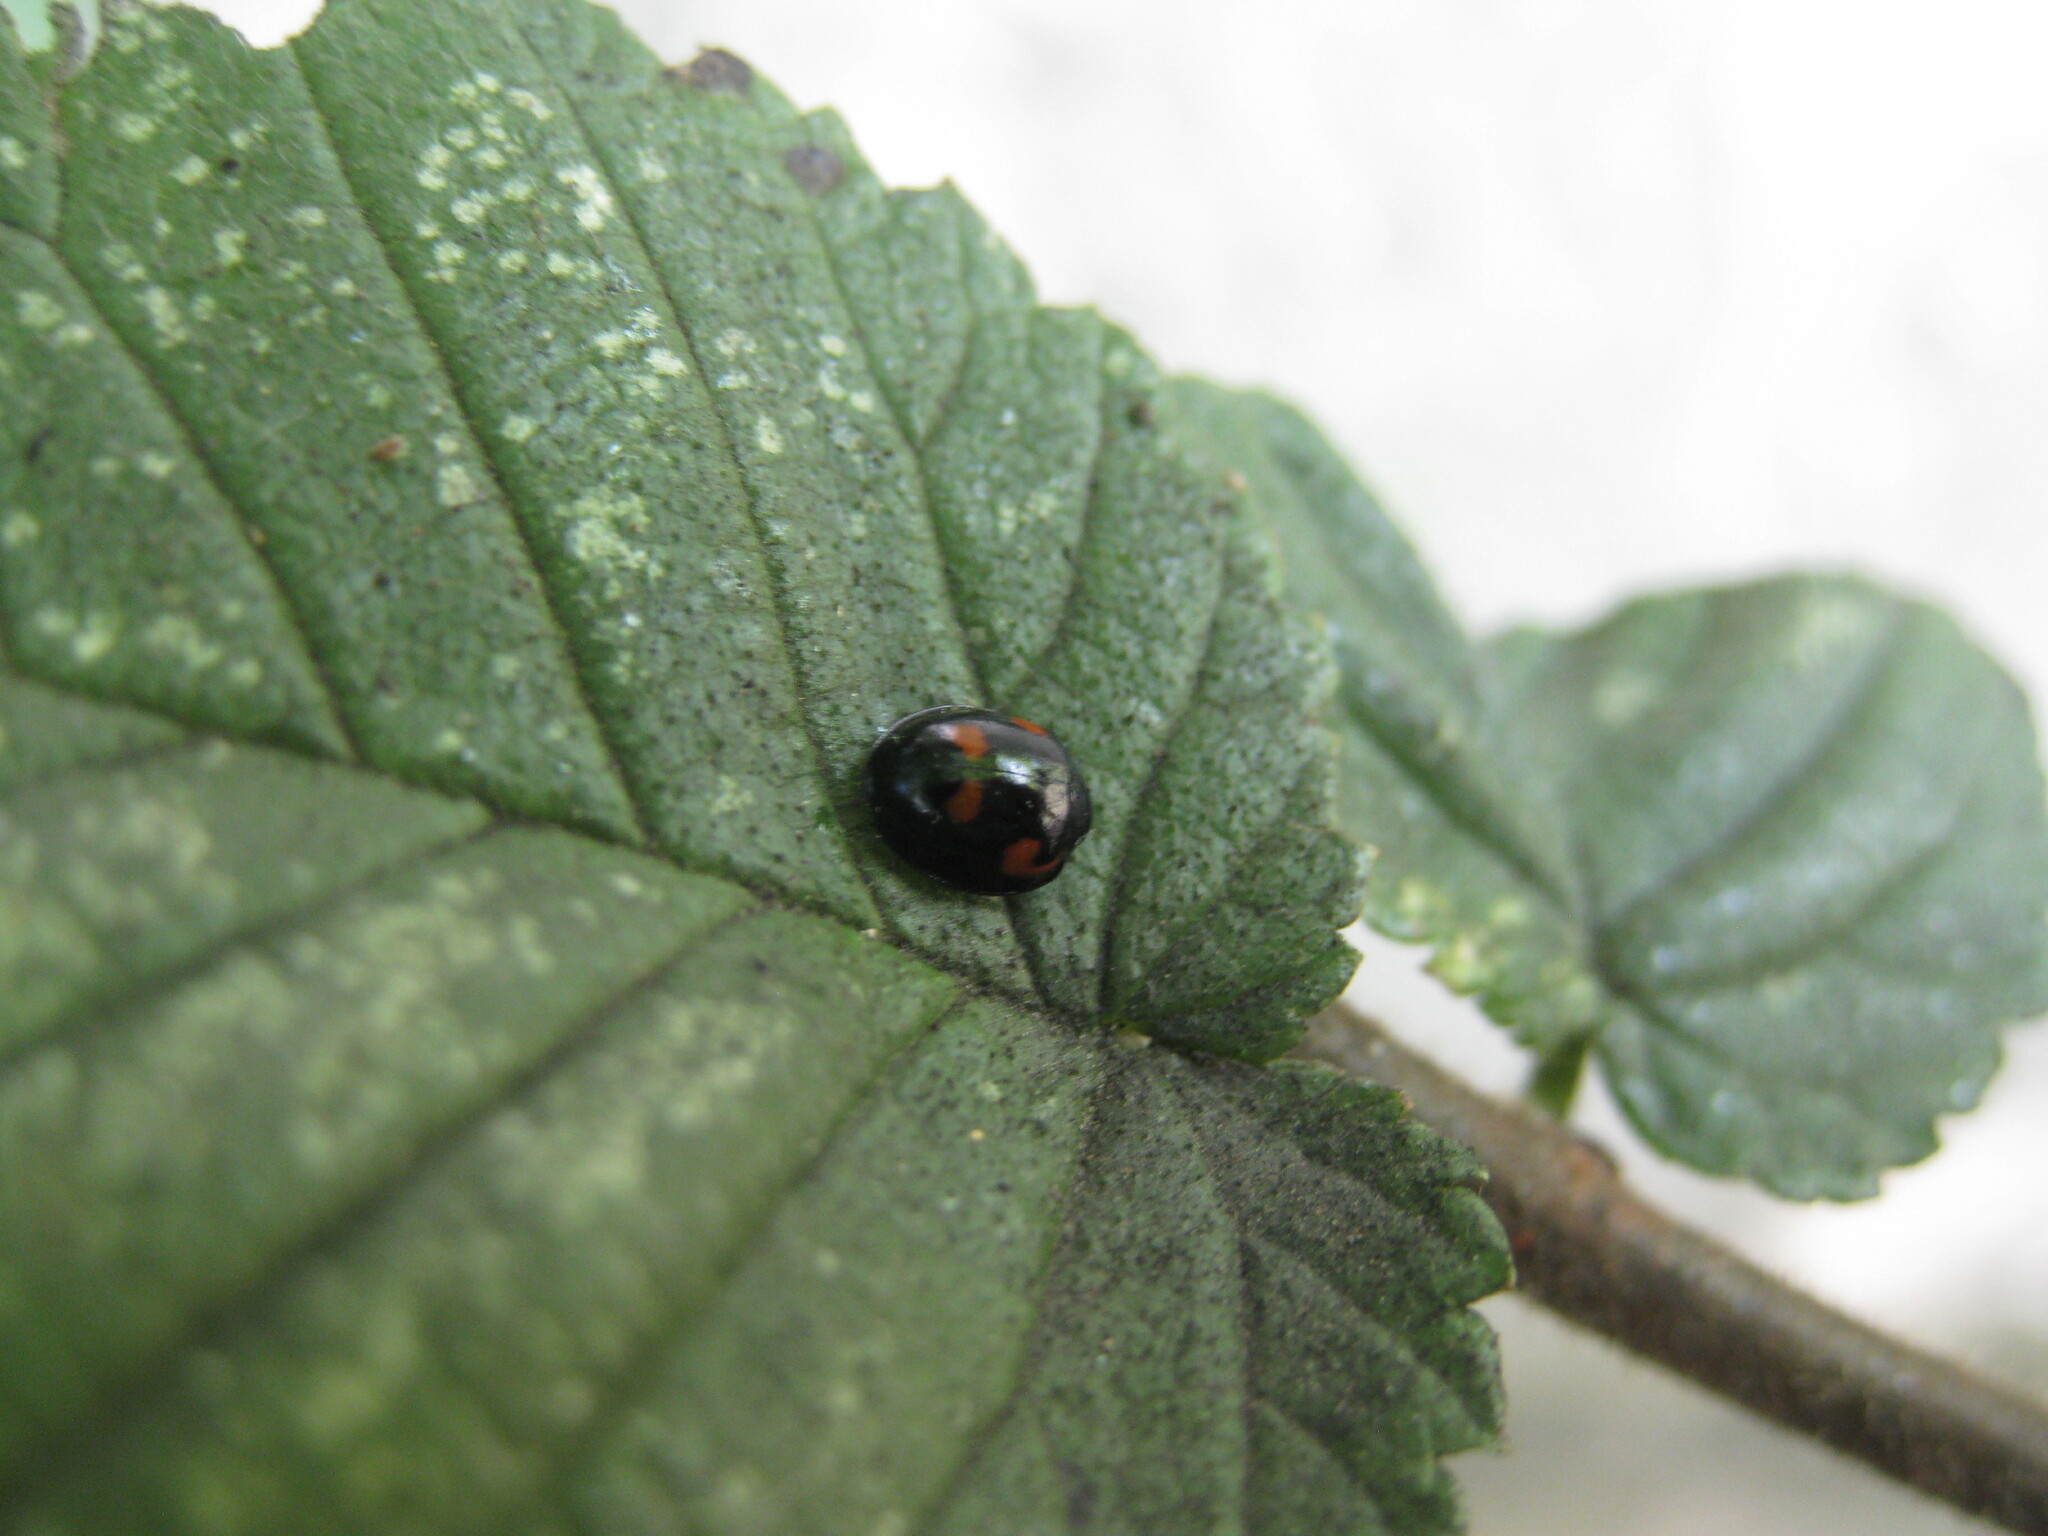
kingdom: Animalia
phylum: Arthropoda
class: Insecta
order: Coleoptera
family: Coccinellidae
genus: Brumus
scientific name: Brumus quadripustulatus
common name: Ladybird beetle
